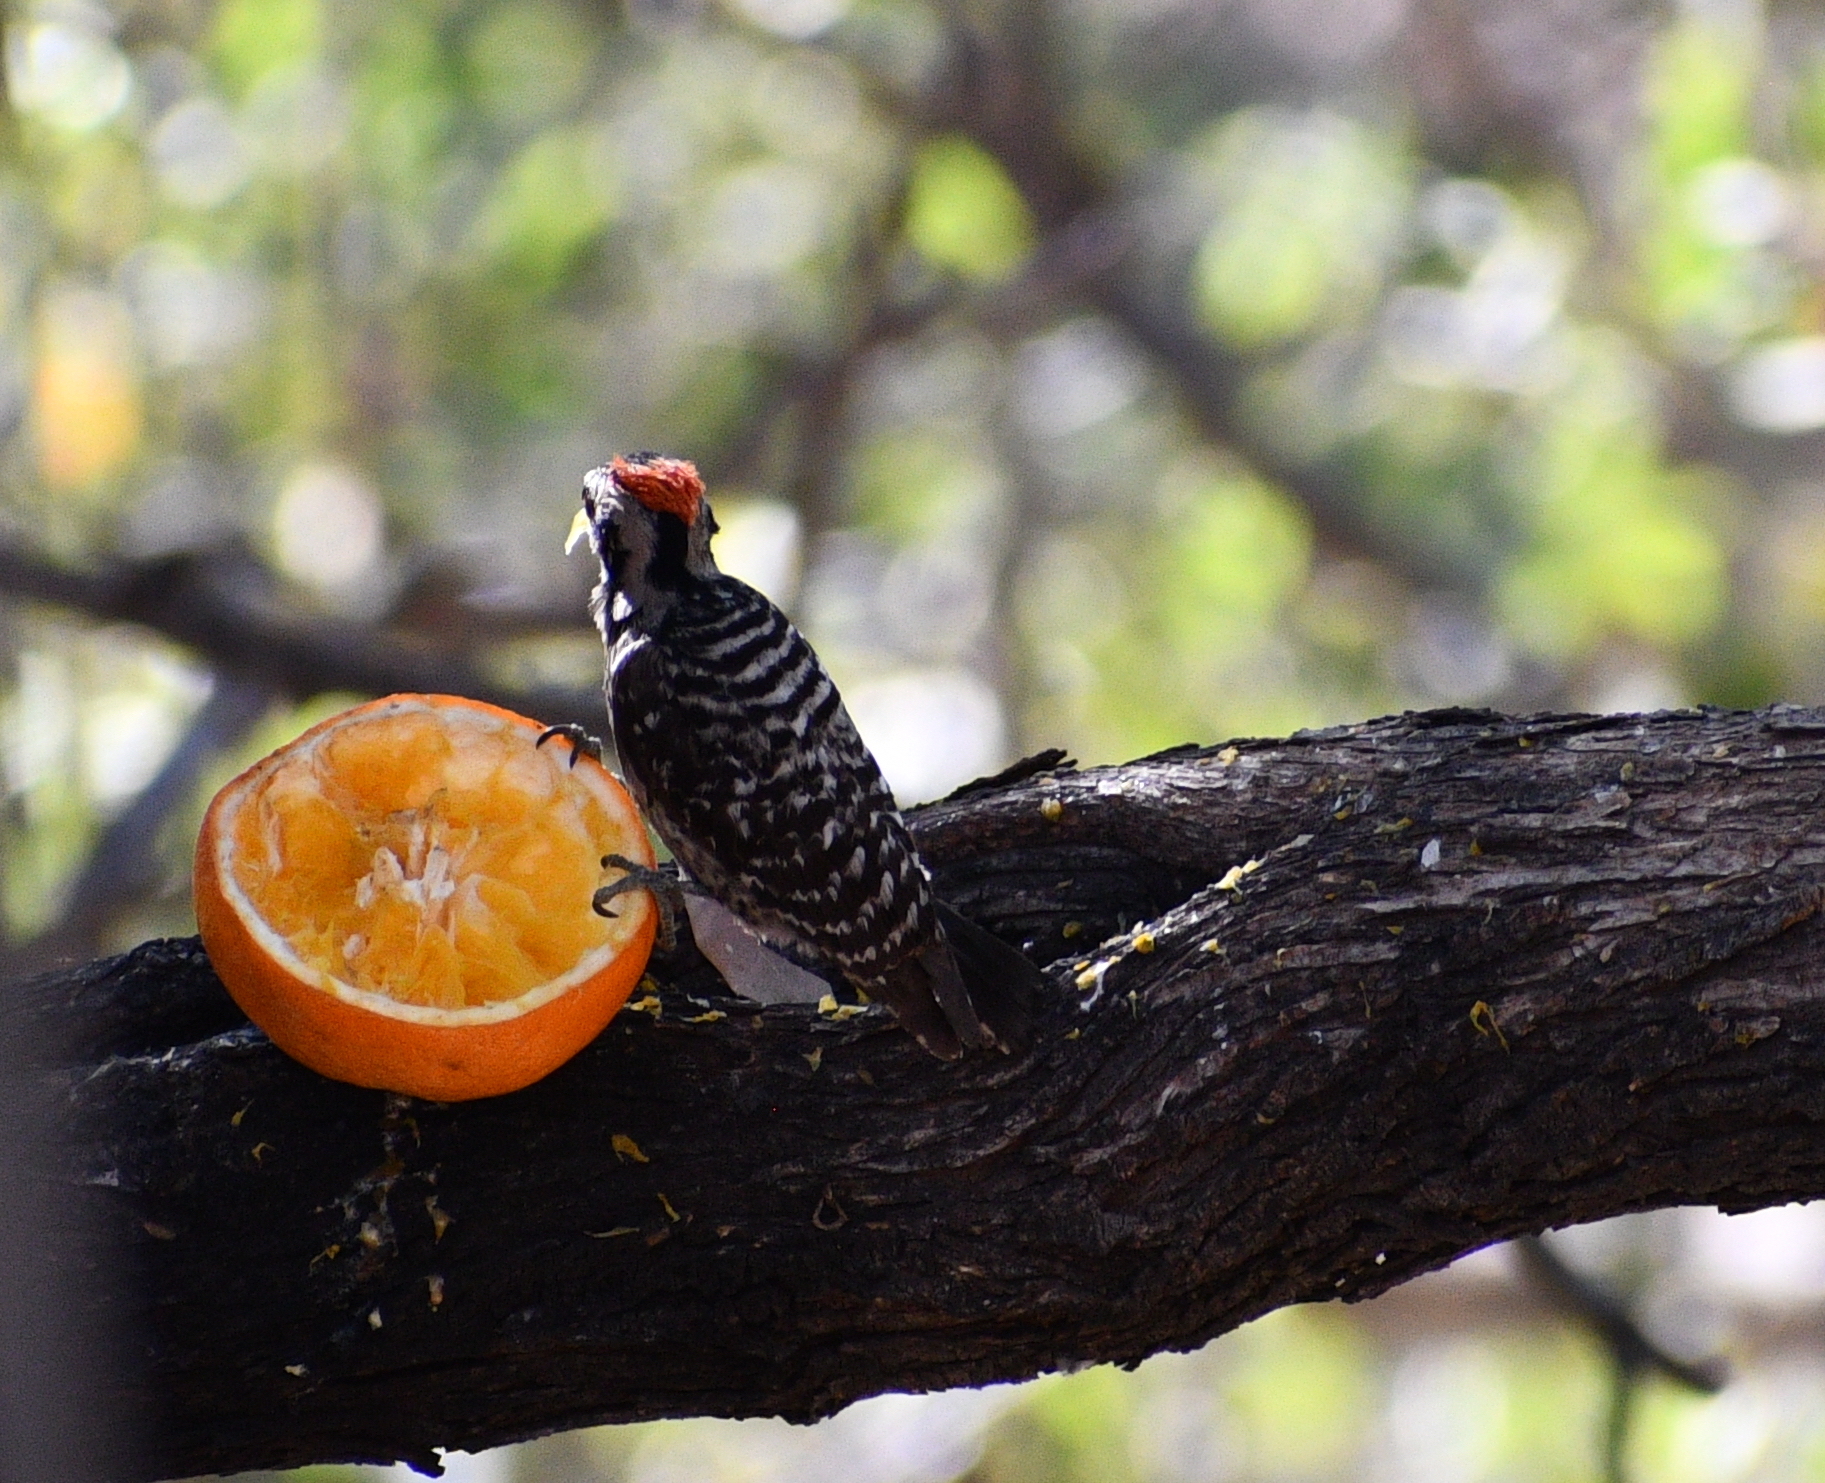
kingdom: Animalia
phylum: Chordata
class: Aves
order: Piciformes
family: Picidae
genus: Dryobates
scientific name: Dryobates scalaris
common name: Ladder-backed woodpecker
